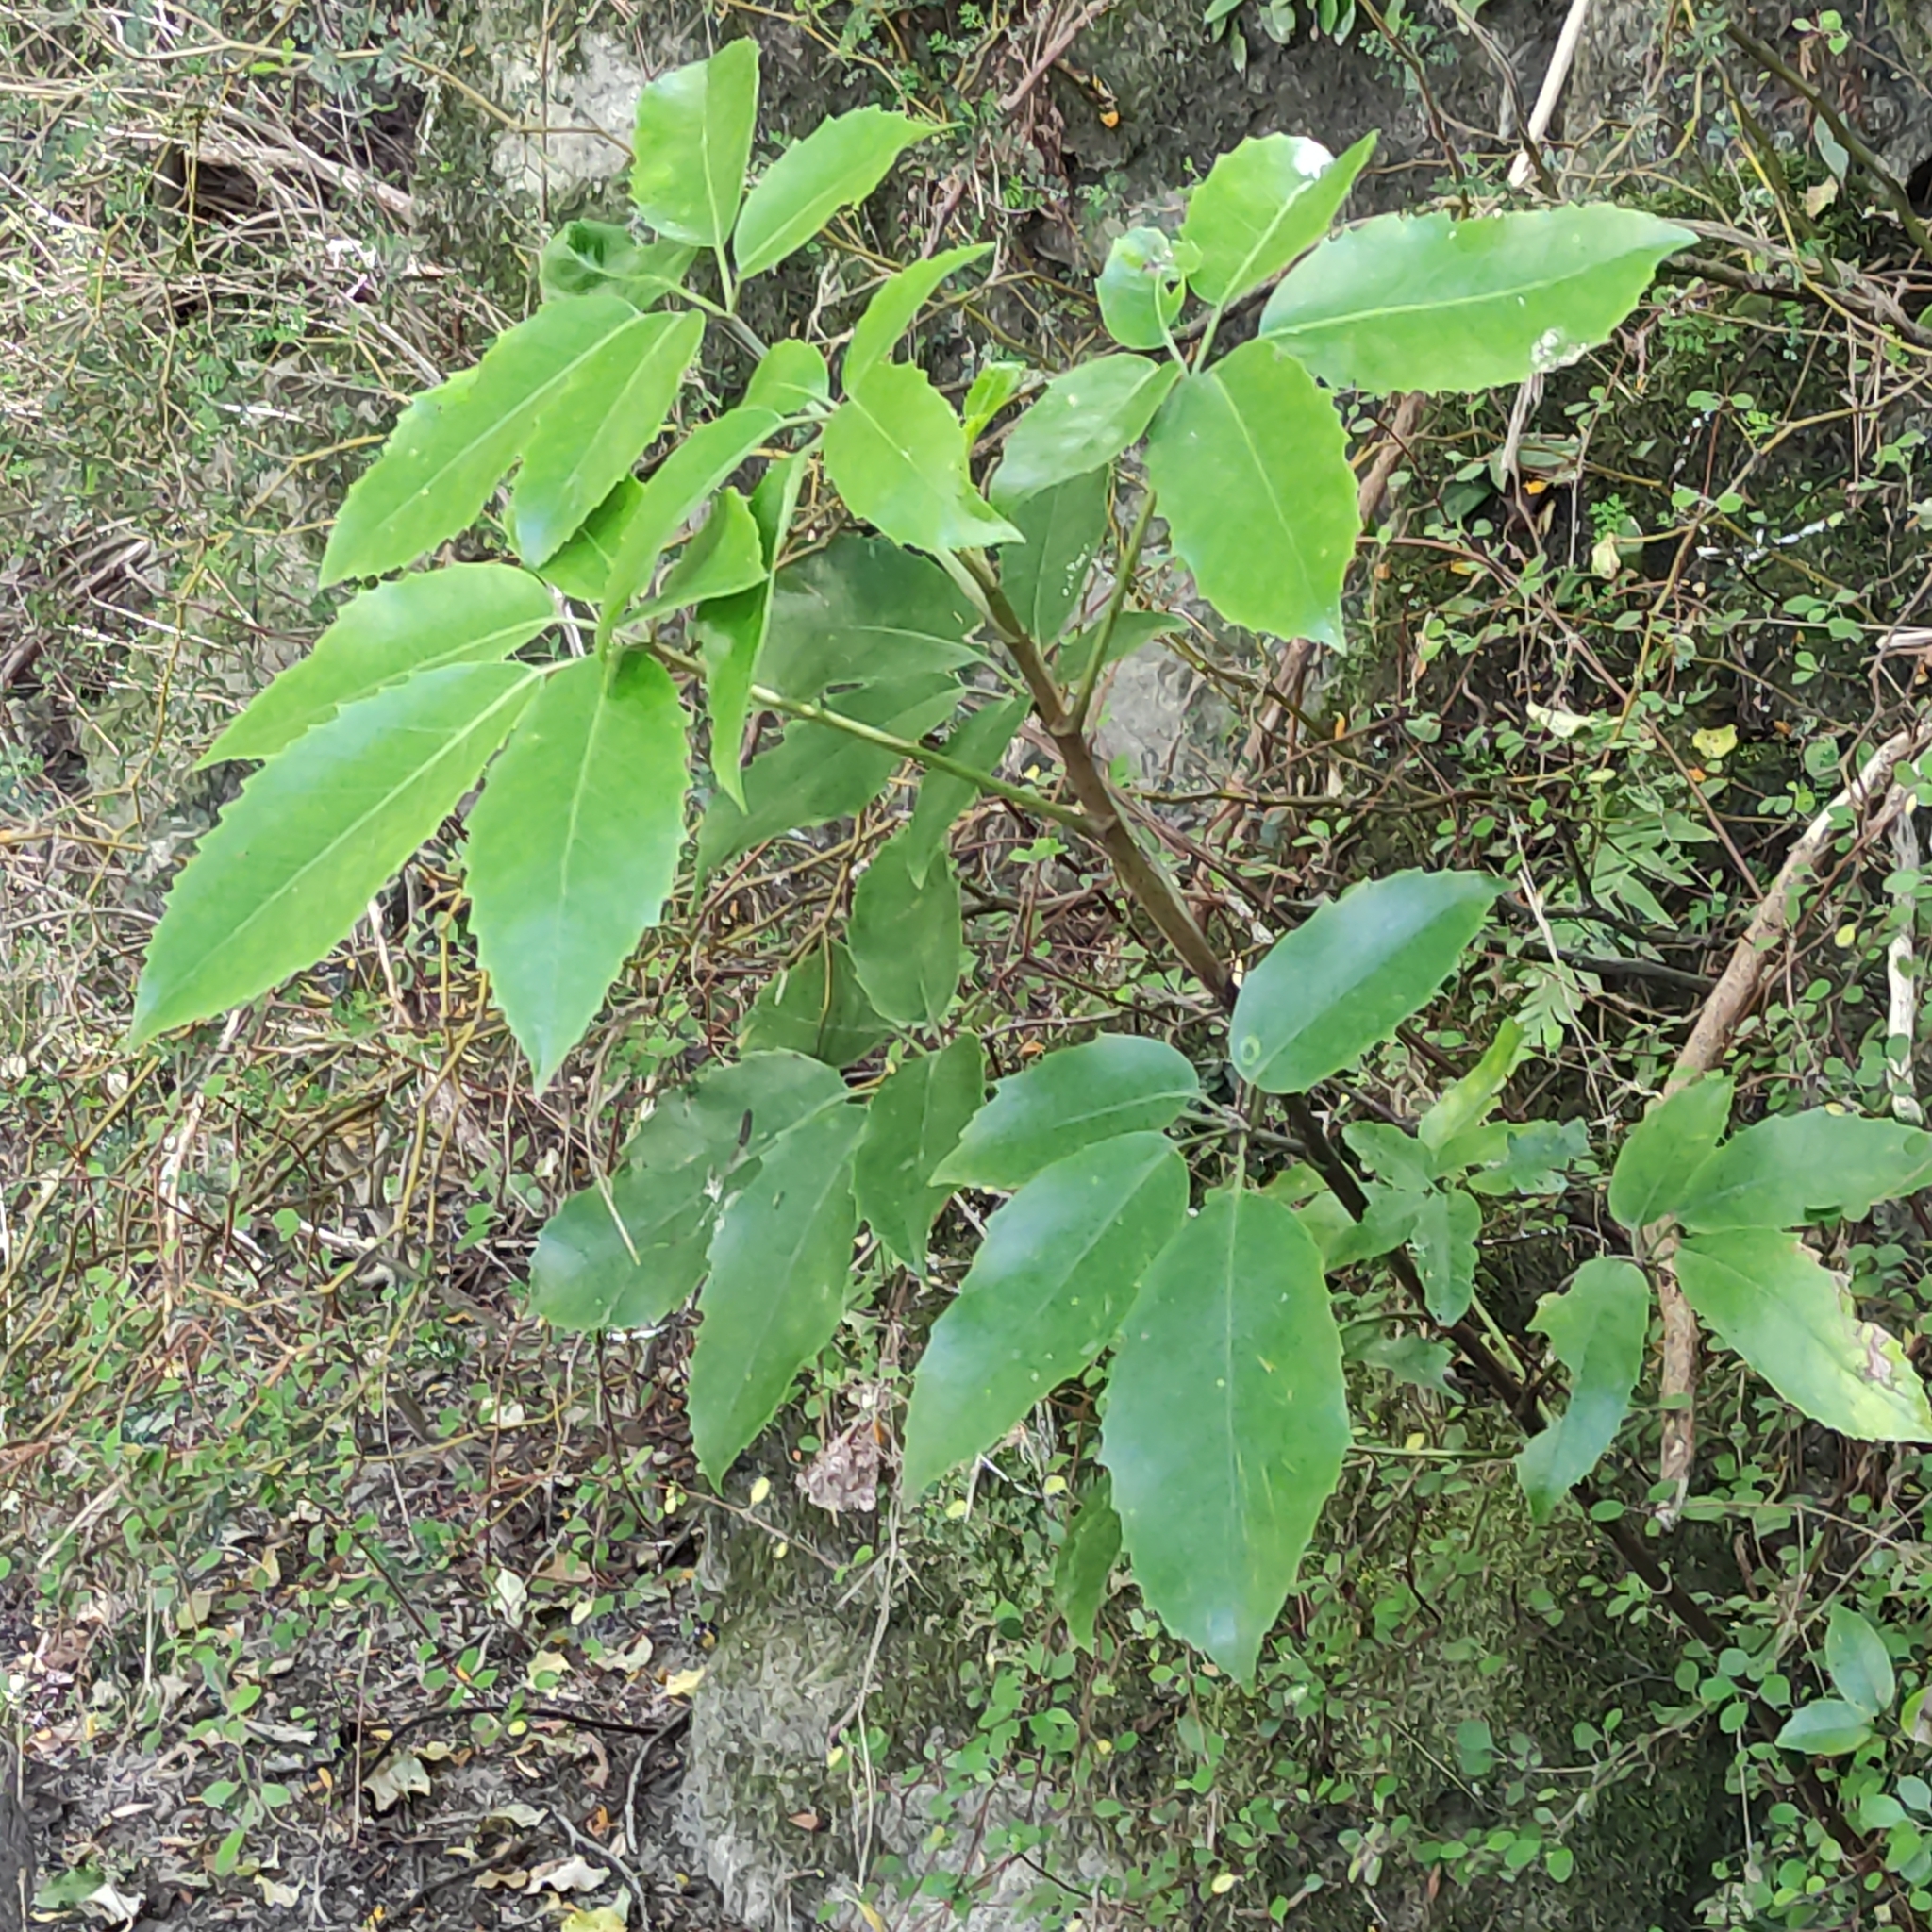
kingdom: Plantae
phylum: Tracheophyta
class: Magnoliopsida
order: Apiales
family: Araliaceae
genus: Neopanax
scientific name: Neopanax arboreus
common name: Five-fingers
